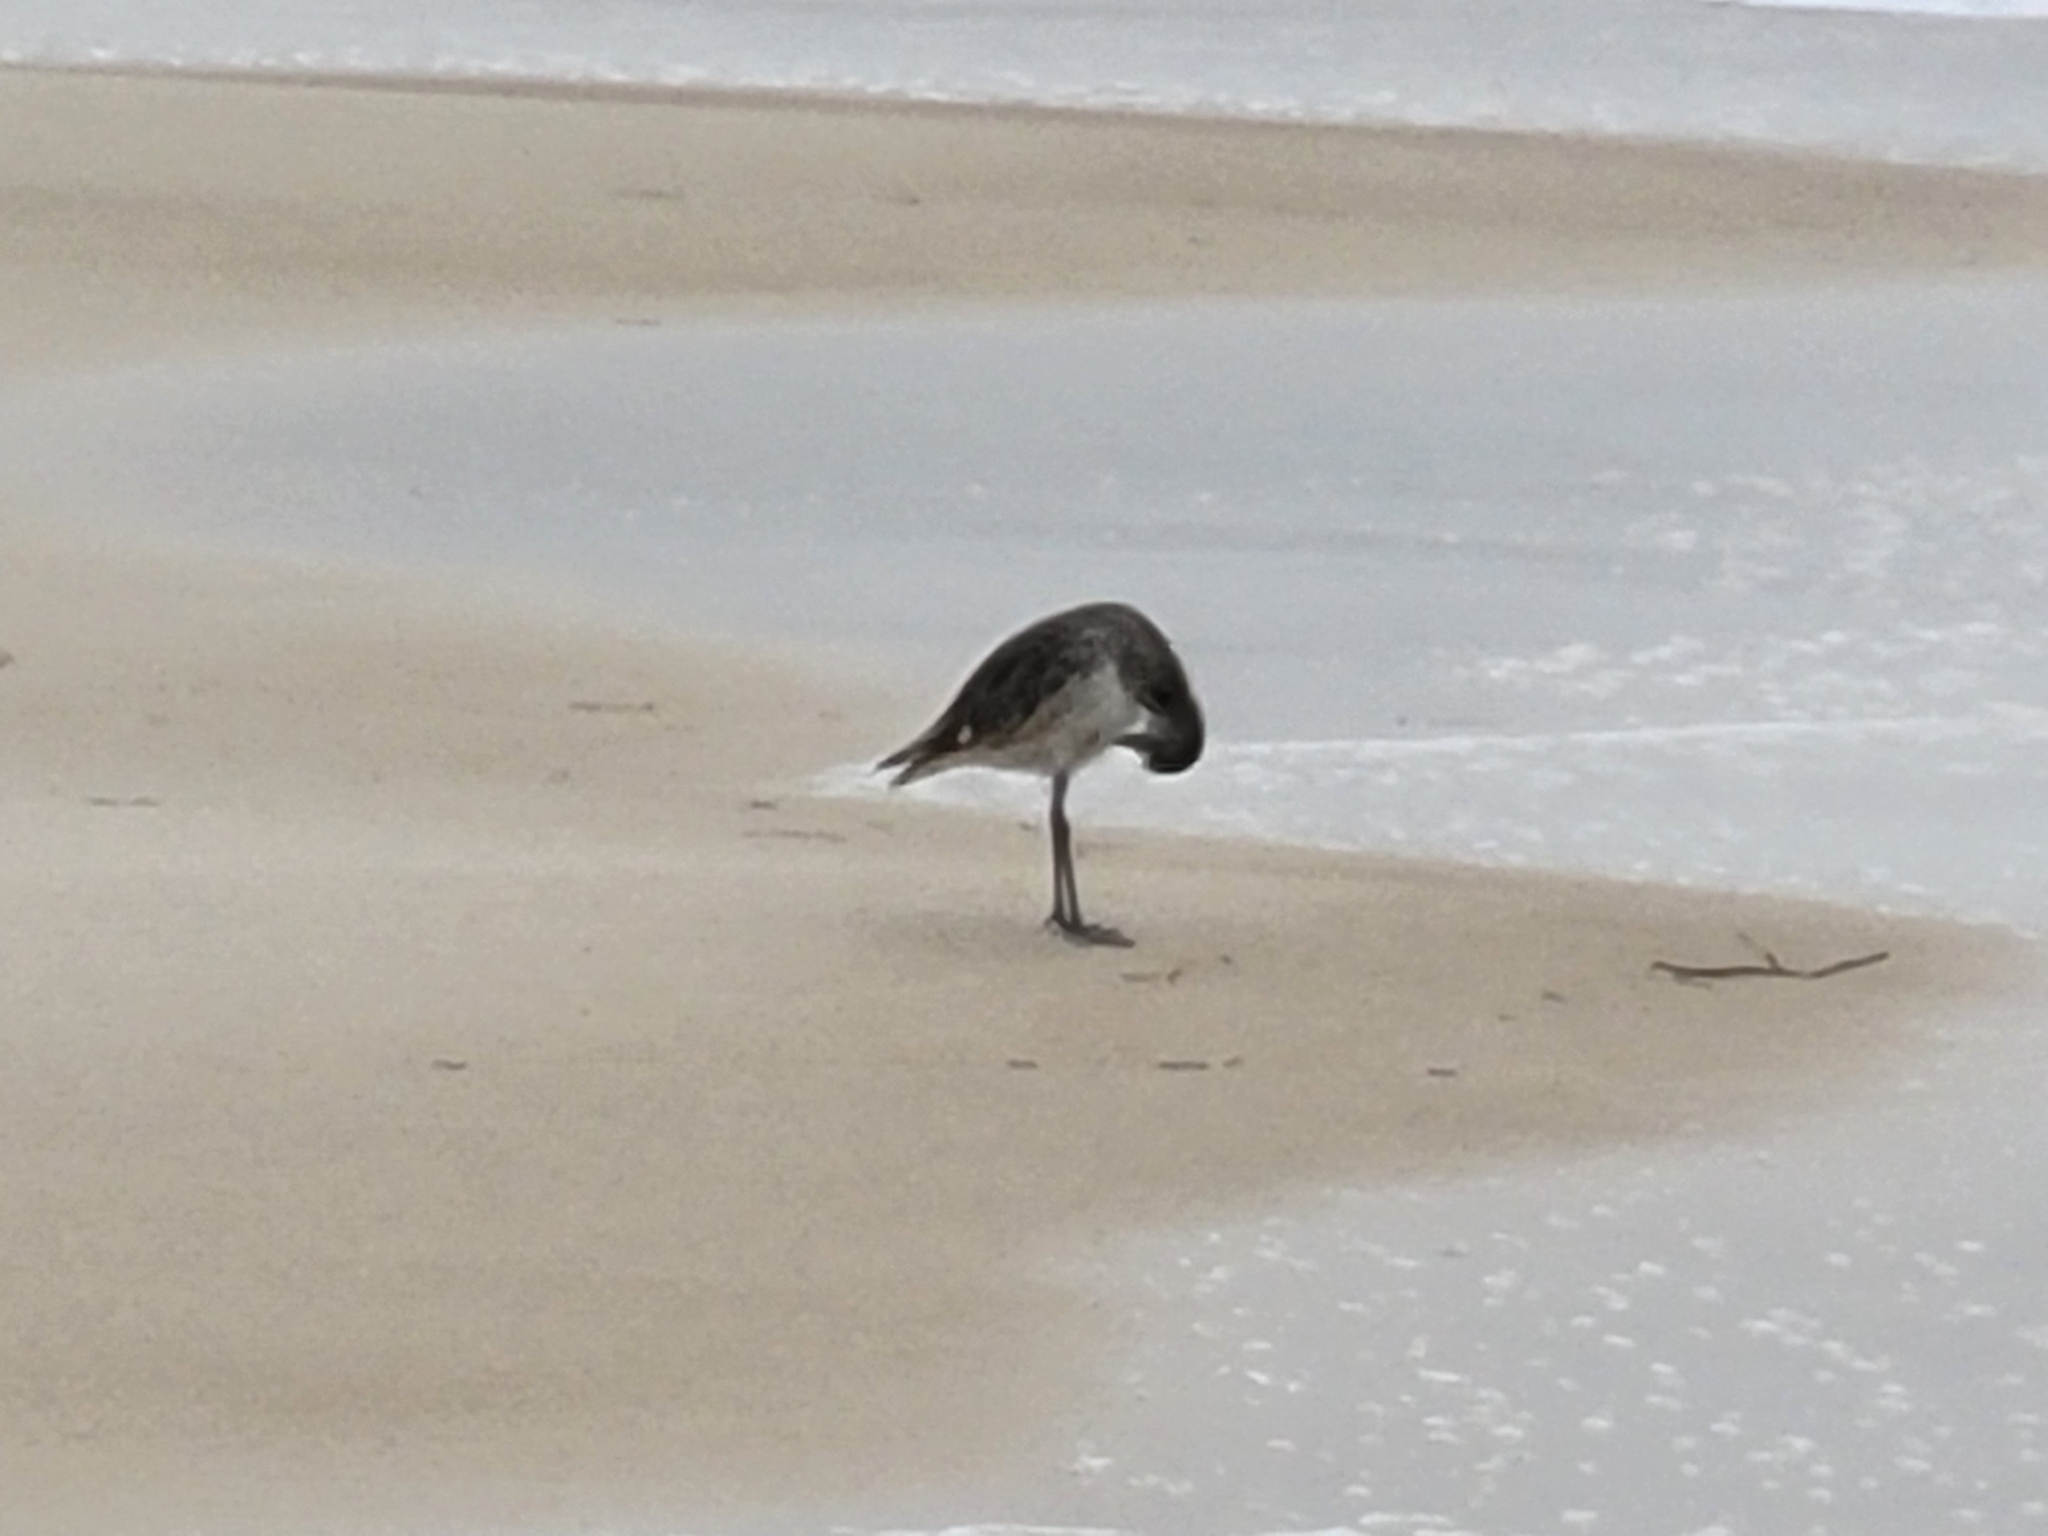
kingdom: Animalia
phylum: Chordata
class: Aves
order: Charadriiformes
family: Scolopacidae
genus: Tringa
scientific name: Tringa semipalmata
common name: Willet
